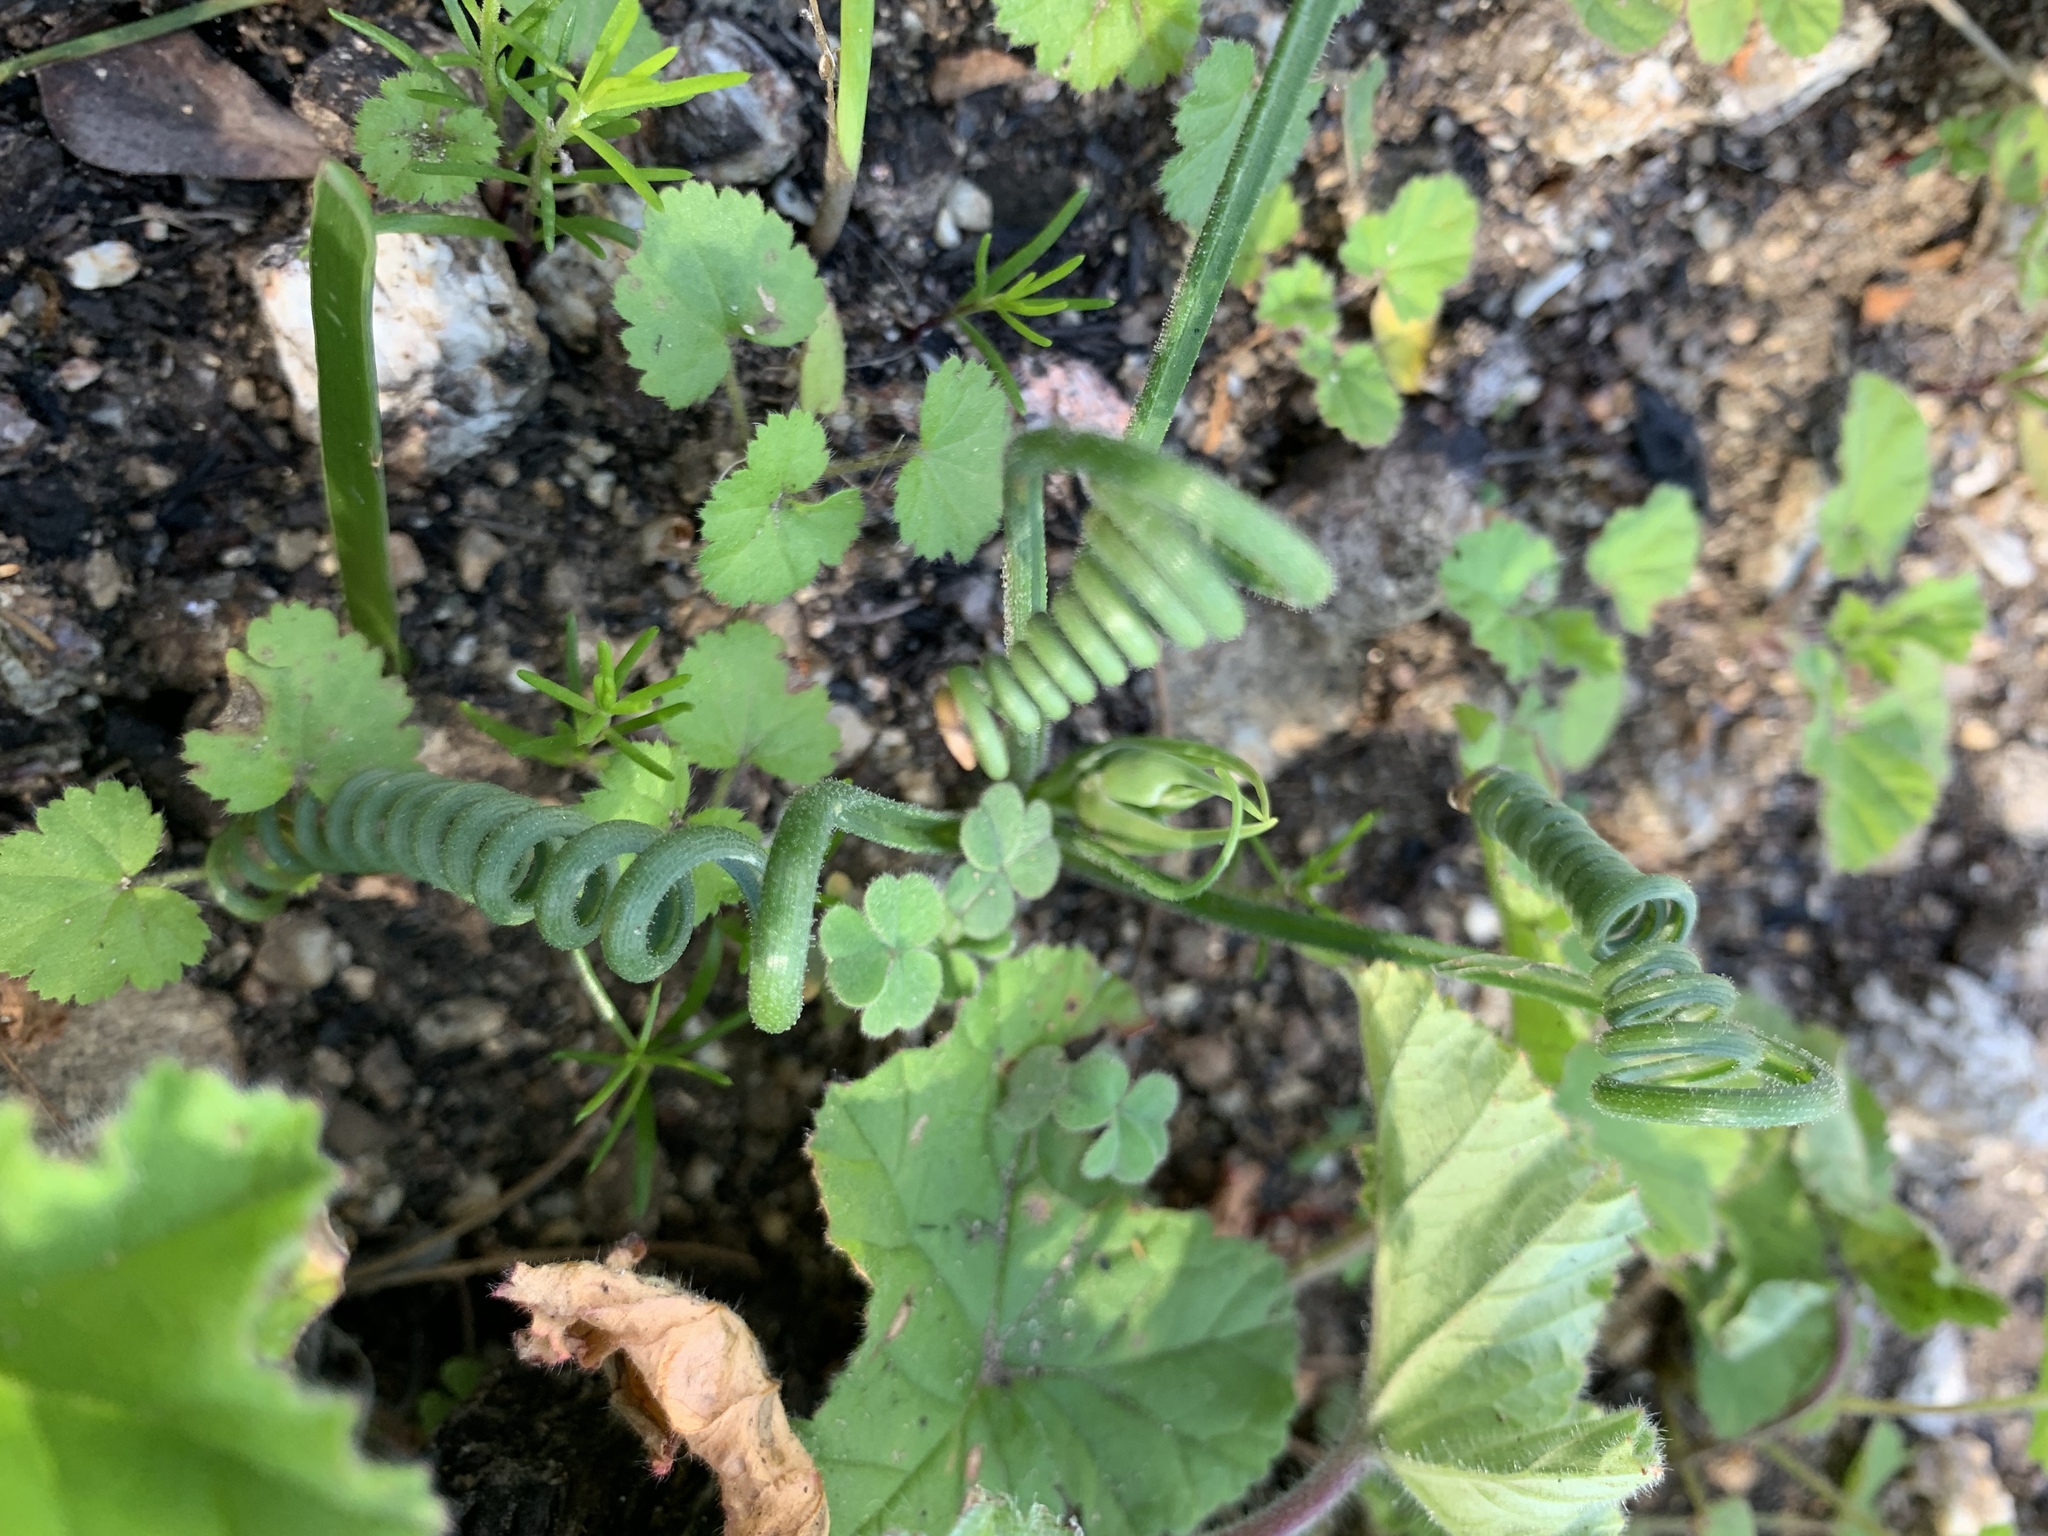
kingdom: Plantae
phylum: Tracheophyta
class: Liliopsida
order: Asparagales
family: Asparagaceae
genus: Albuca
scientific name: Albuca spiralis
